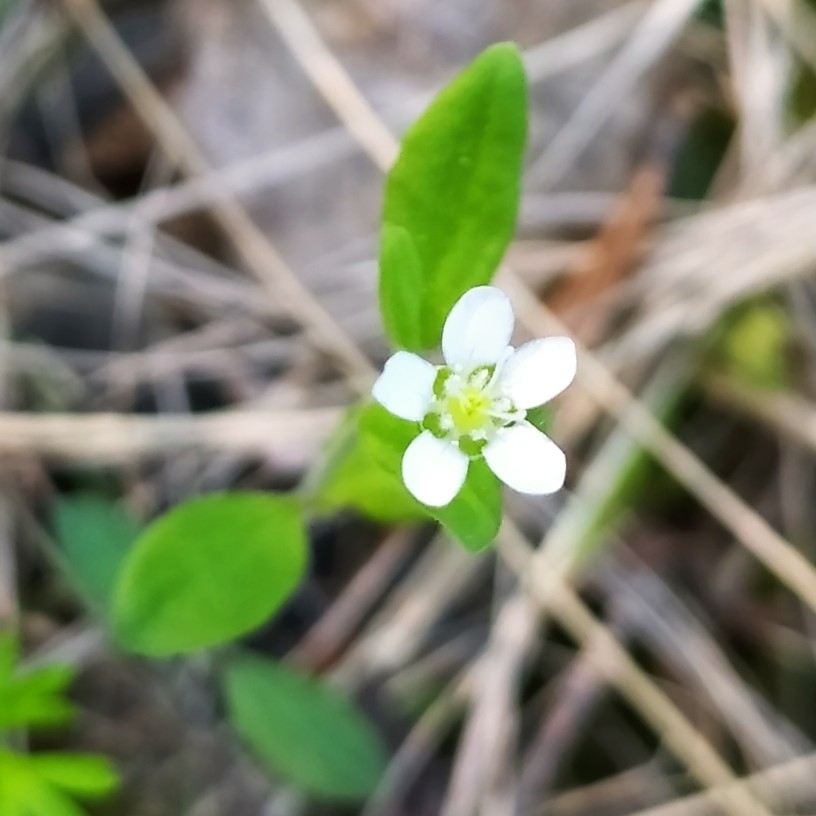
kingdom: Plantae
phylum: Tracheophyta
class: Magnoliopsida
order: Caryophyllales
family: Caryophyllaceae
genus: Moehringia
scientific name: Moehringia lateriflora
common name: Blunt-leaved sandwort
